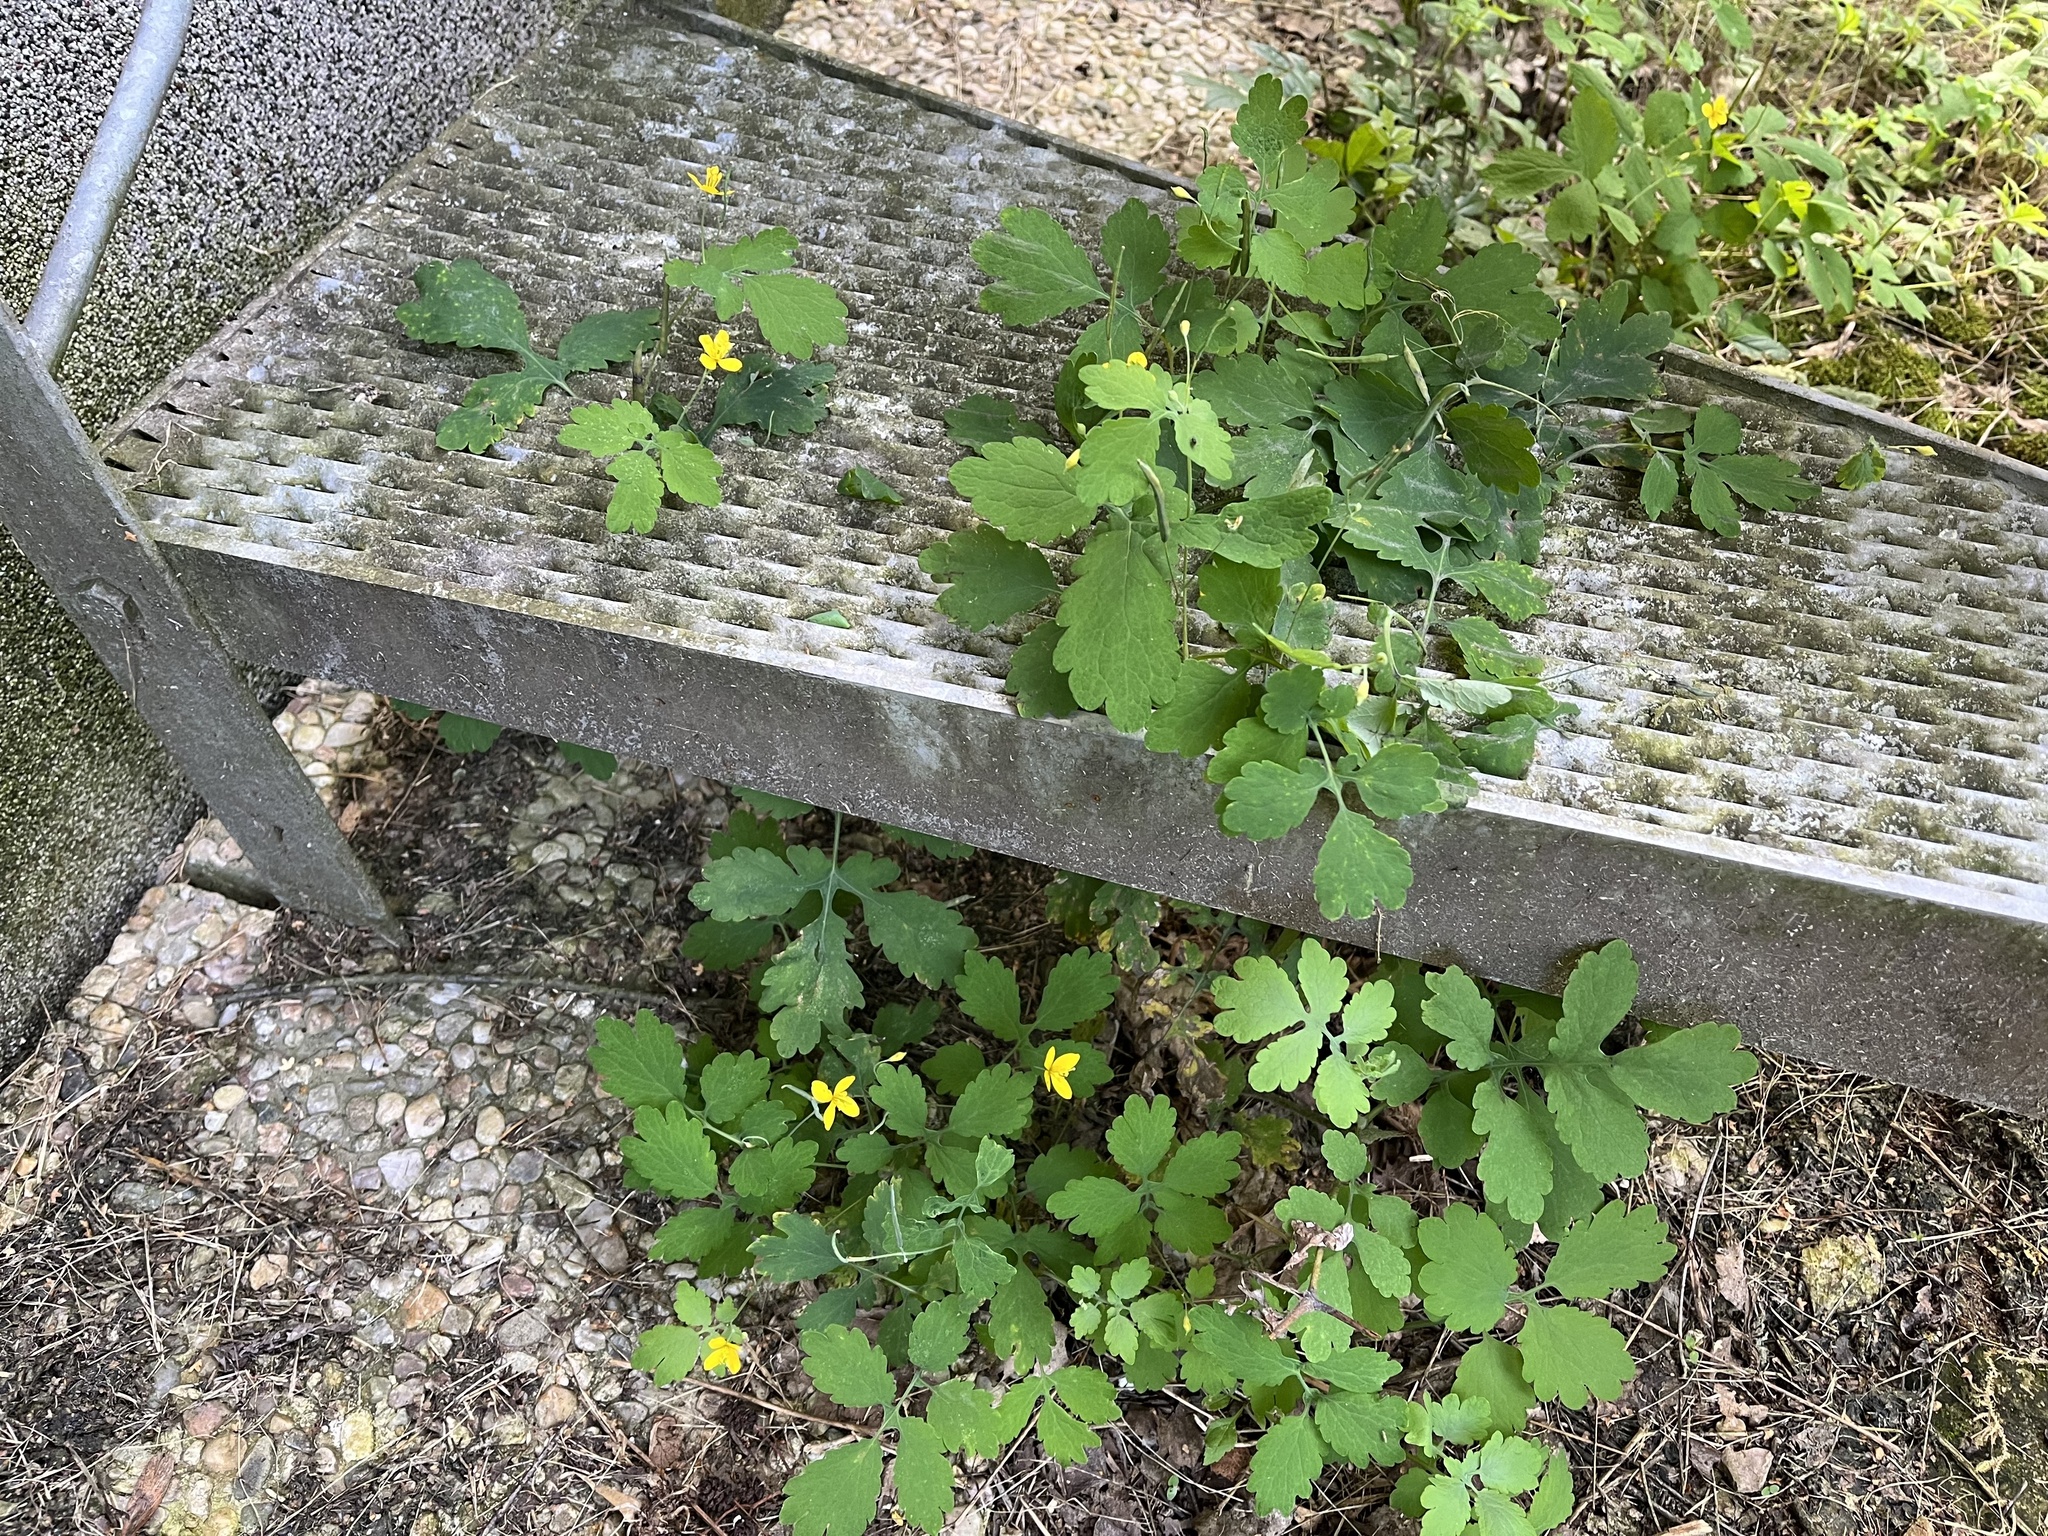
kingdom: Plantae
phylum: Tracheophyta
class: Magnoliopsida
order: Ranunculales
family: Papaveraceae
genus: Chelidonium
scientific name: Chelidonium majus
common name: Greater celandine
